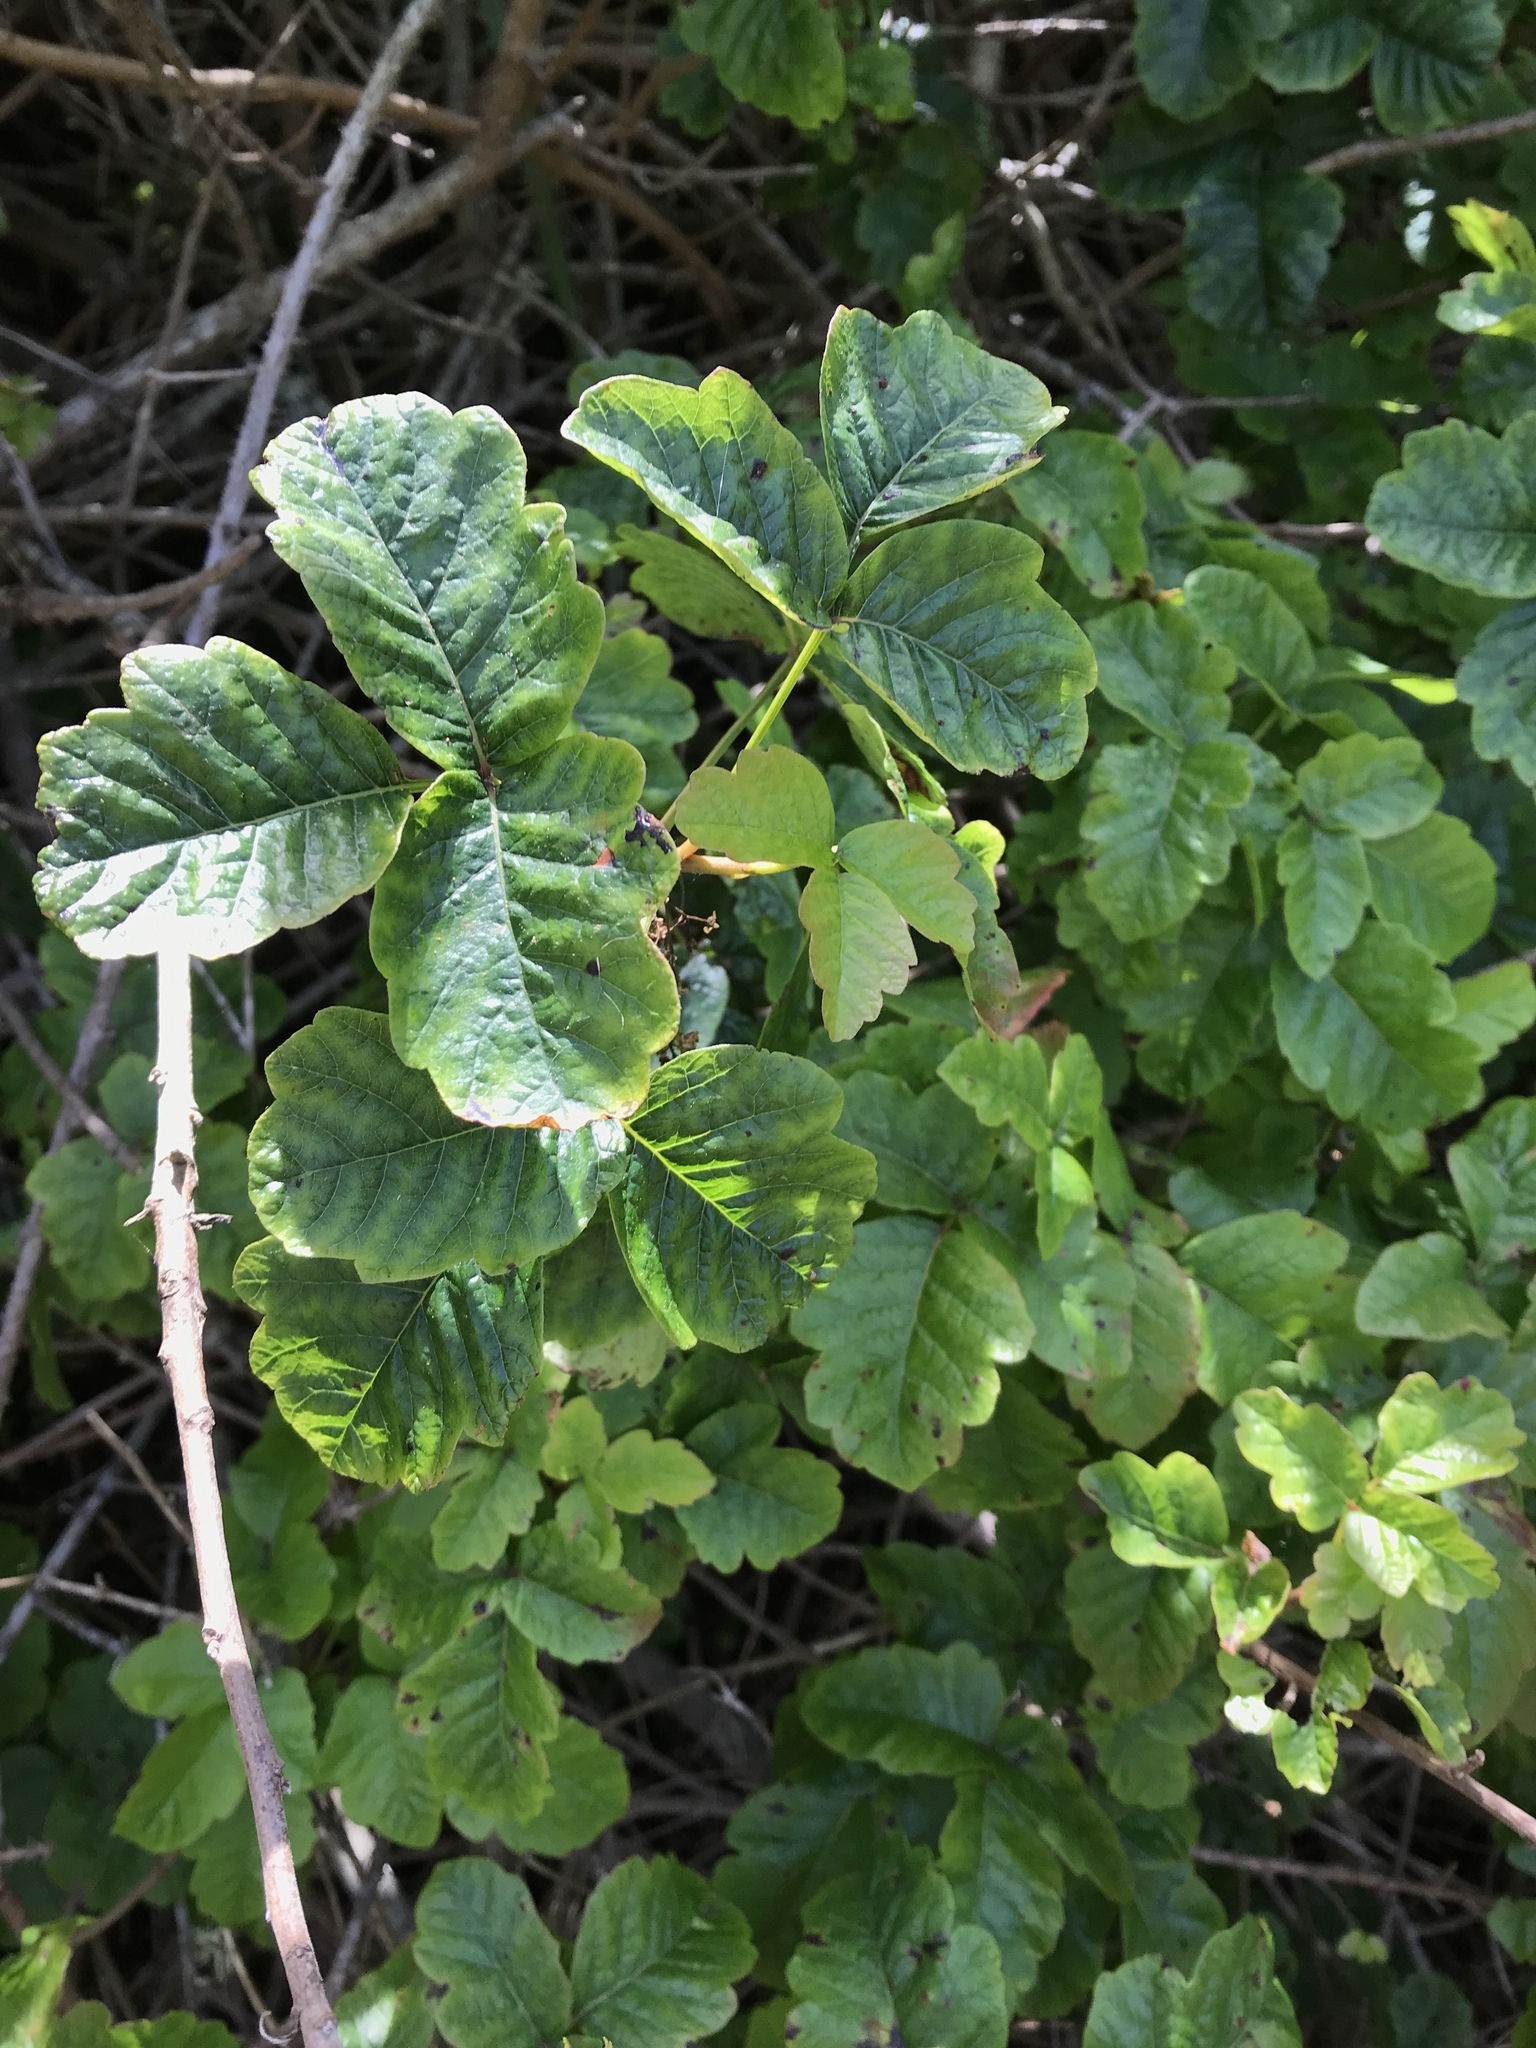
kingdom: Plantae
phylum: Tracheophyta
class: Magnoliopsida
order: Sapindales
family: Anacardiaceae
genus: Toxicodendron
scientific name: Toxicodendron diversilobum
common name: Pacific poison-oak
